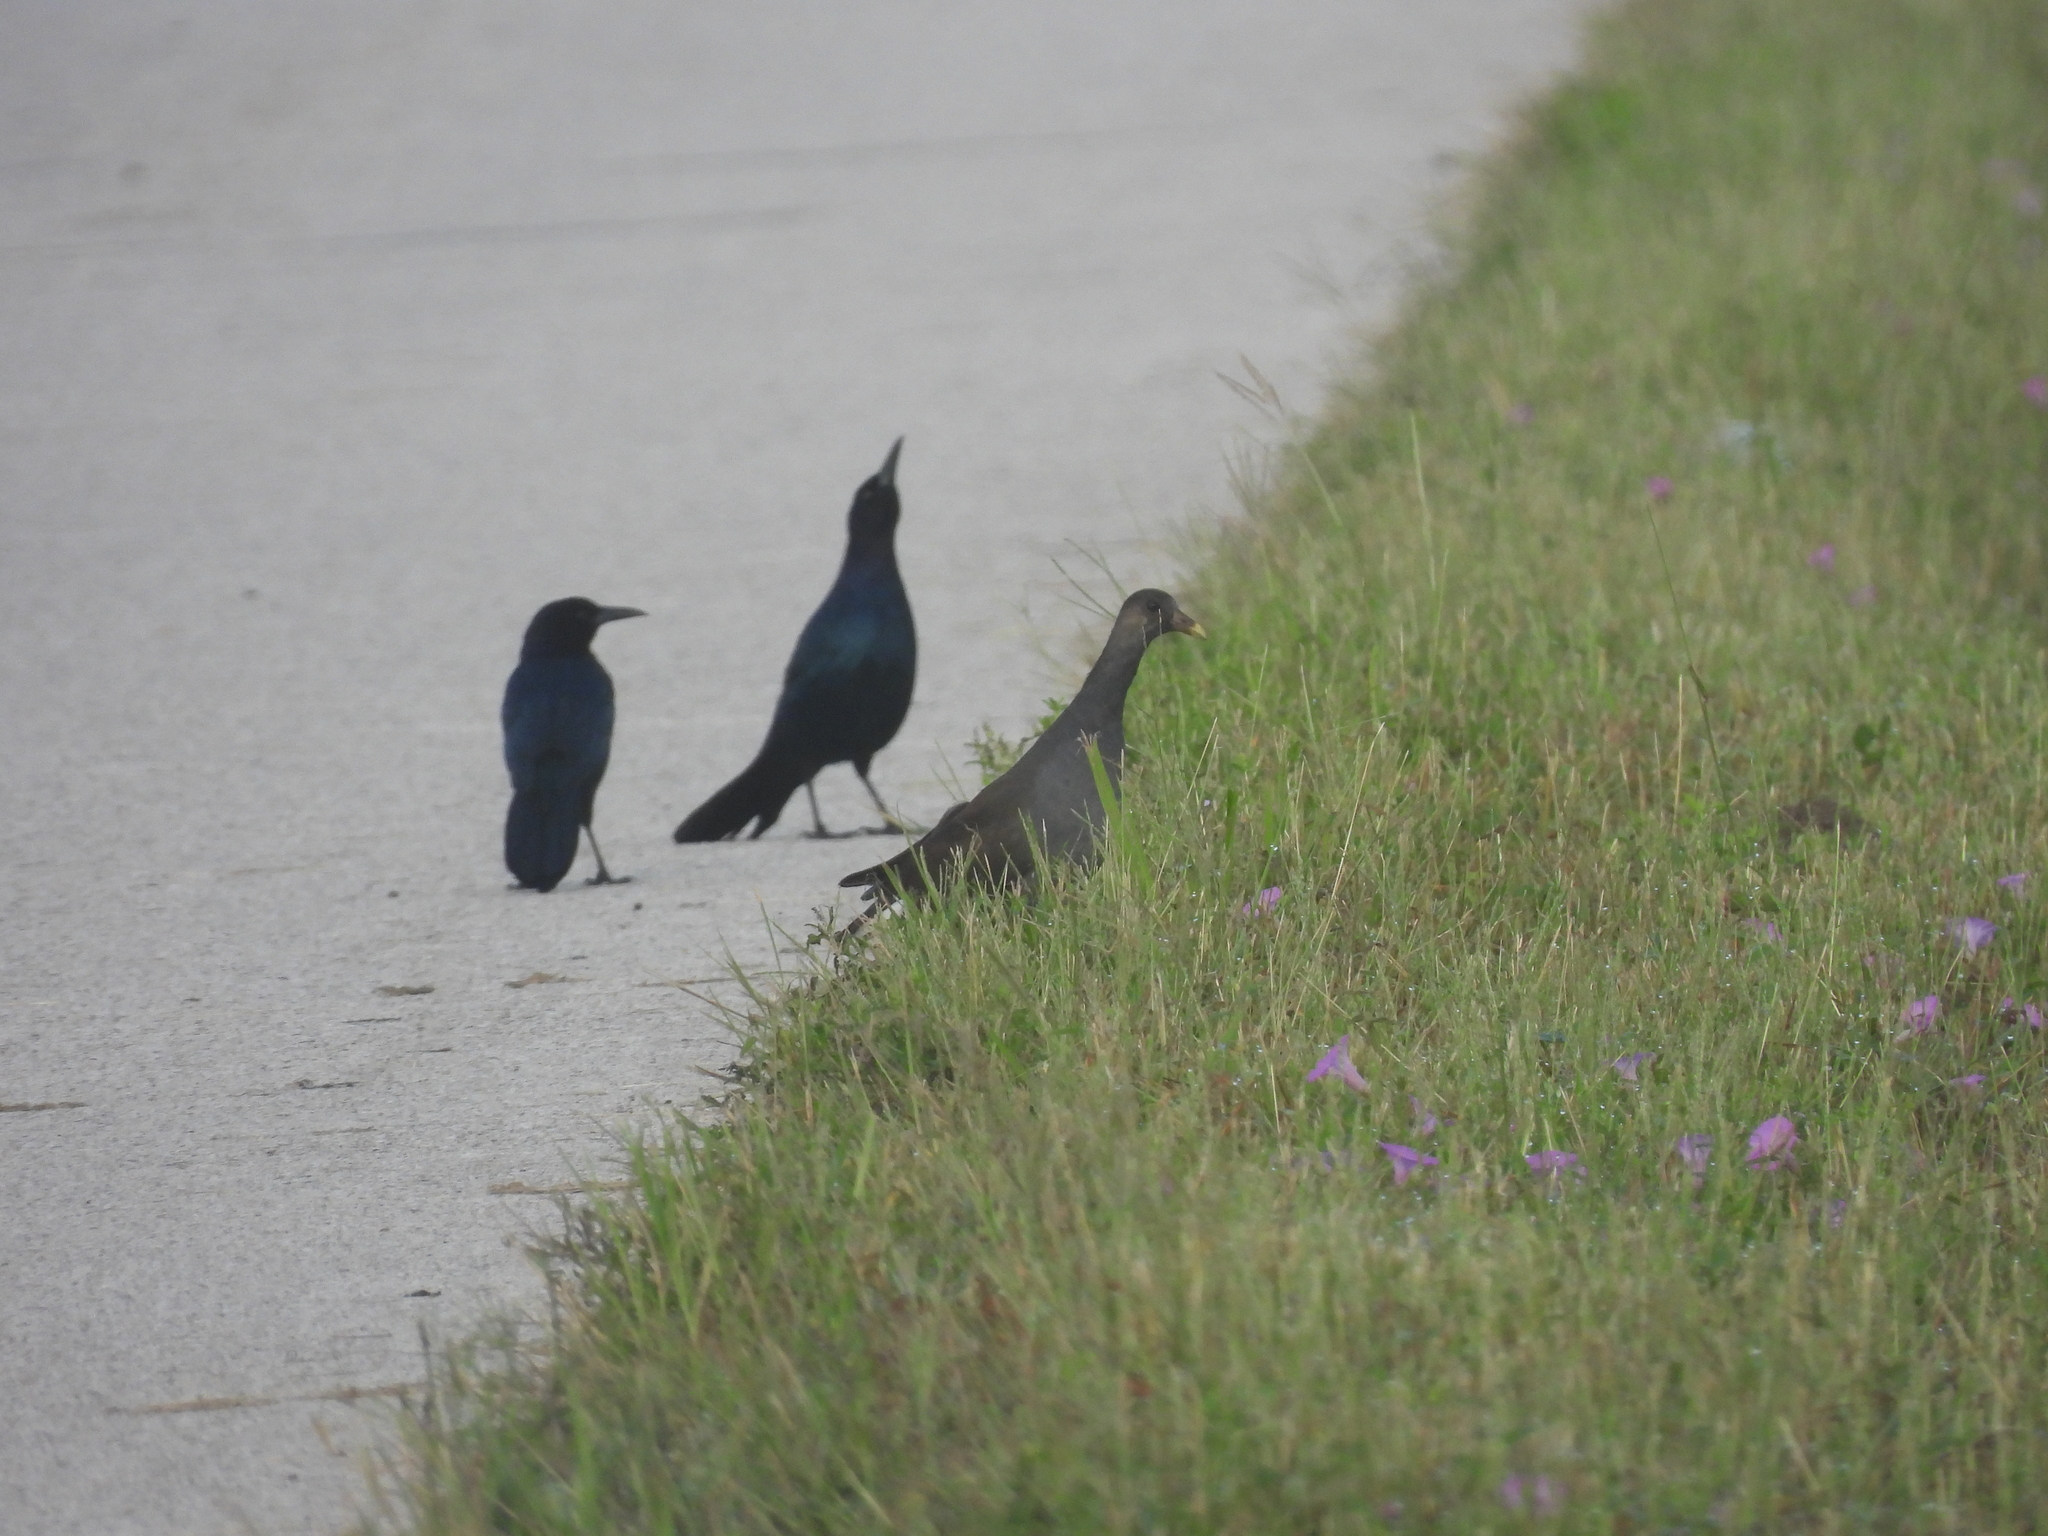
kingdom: Animalia
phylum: Chordata
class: Aves
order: Gruiformes
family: Rallidae
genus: Gallinula
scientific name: Gallinula chloropus
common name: Common moorhen
